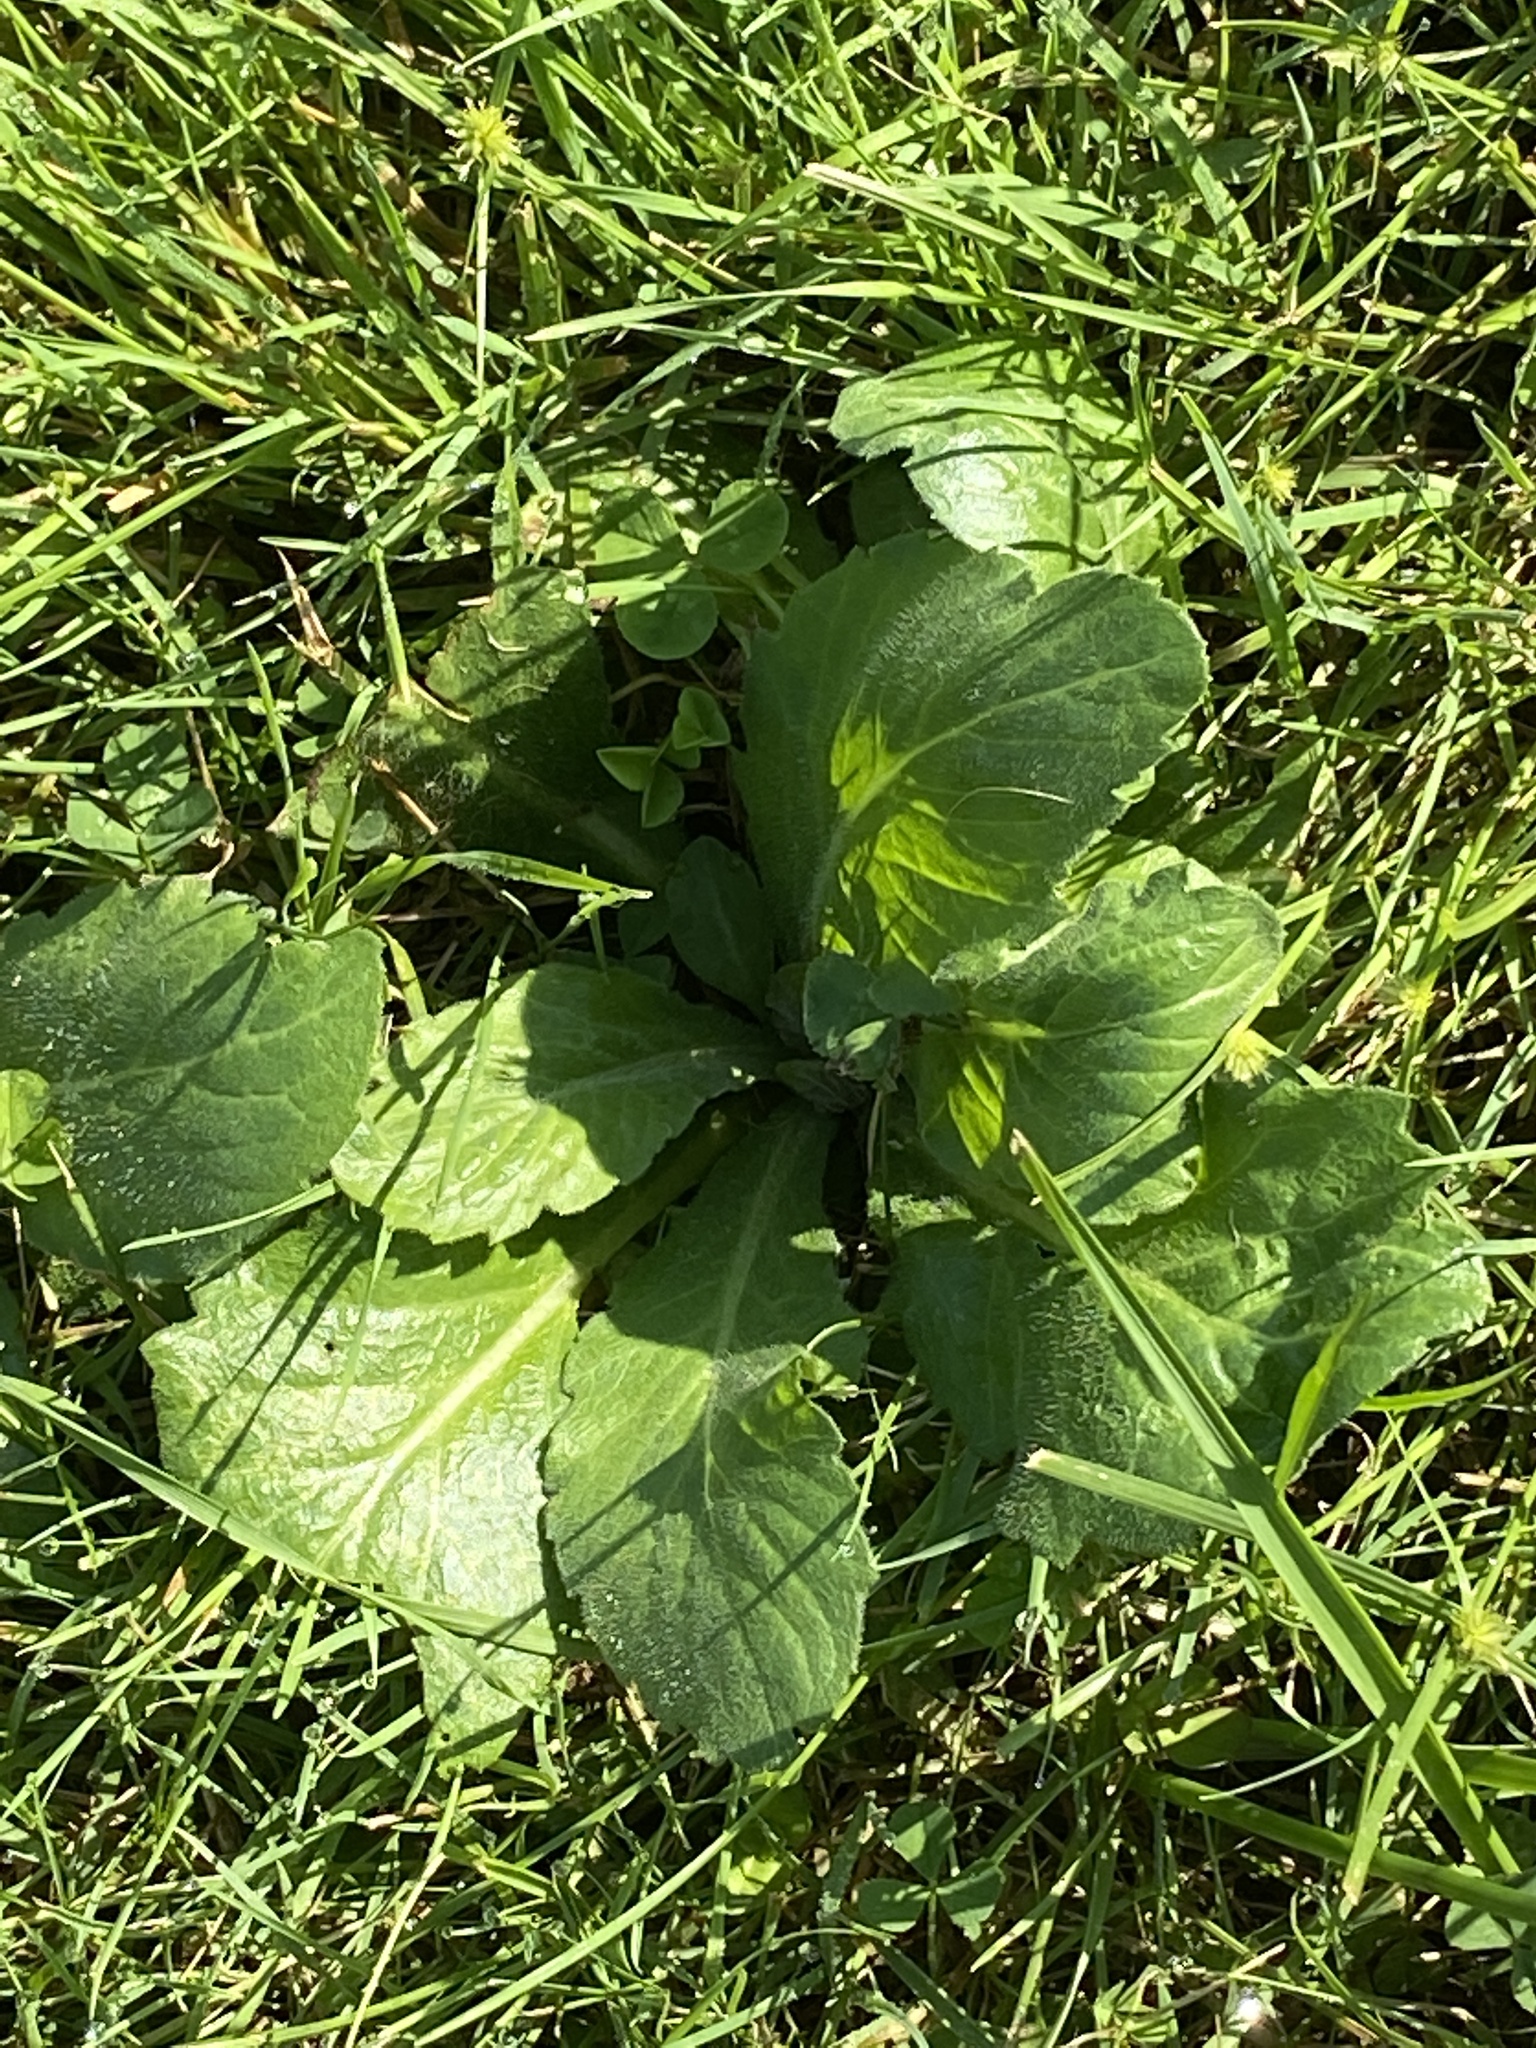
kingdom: Plantae
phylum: Tracheophyta
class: Magnoliopsida
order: Asterales
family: Asteraceae
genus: Erigeron
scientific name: Erigeron pulchellus
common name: Hairy fleabane
